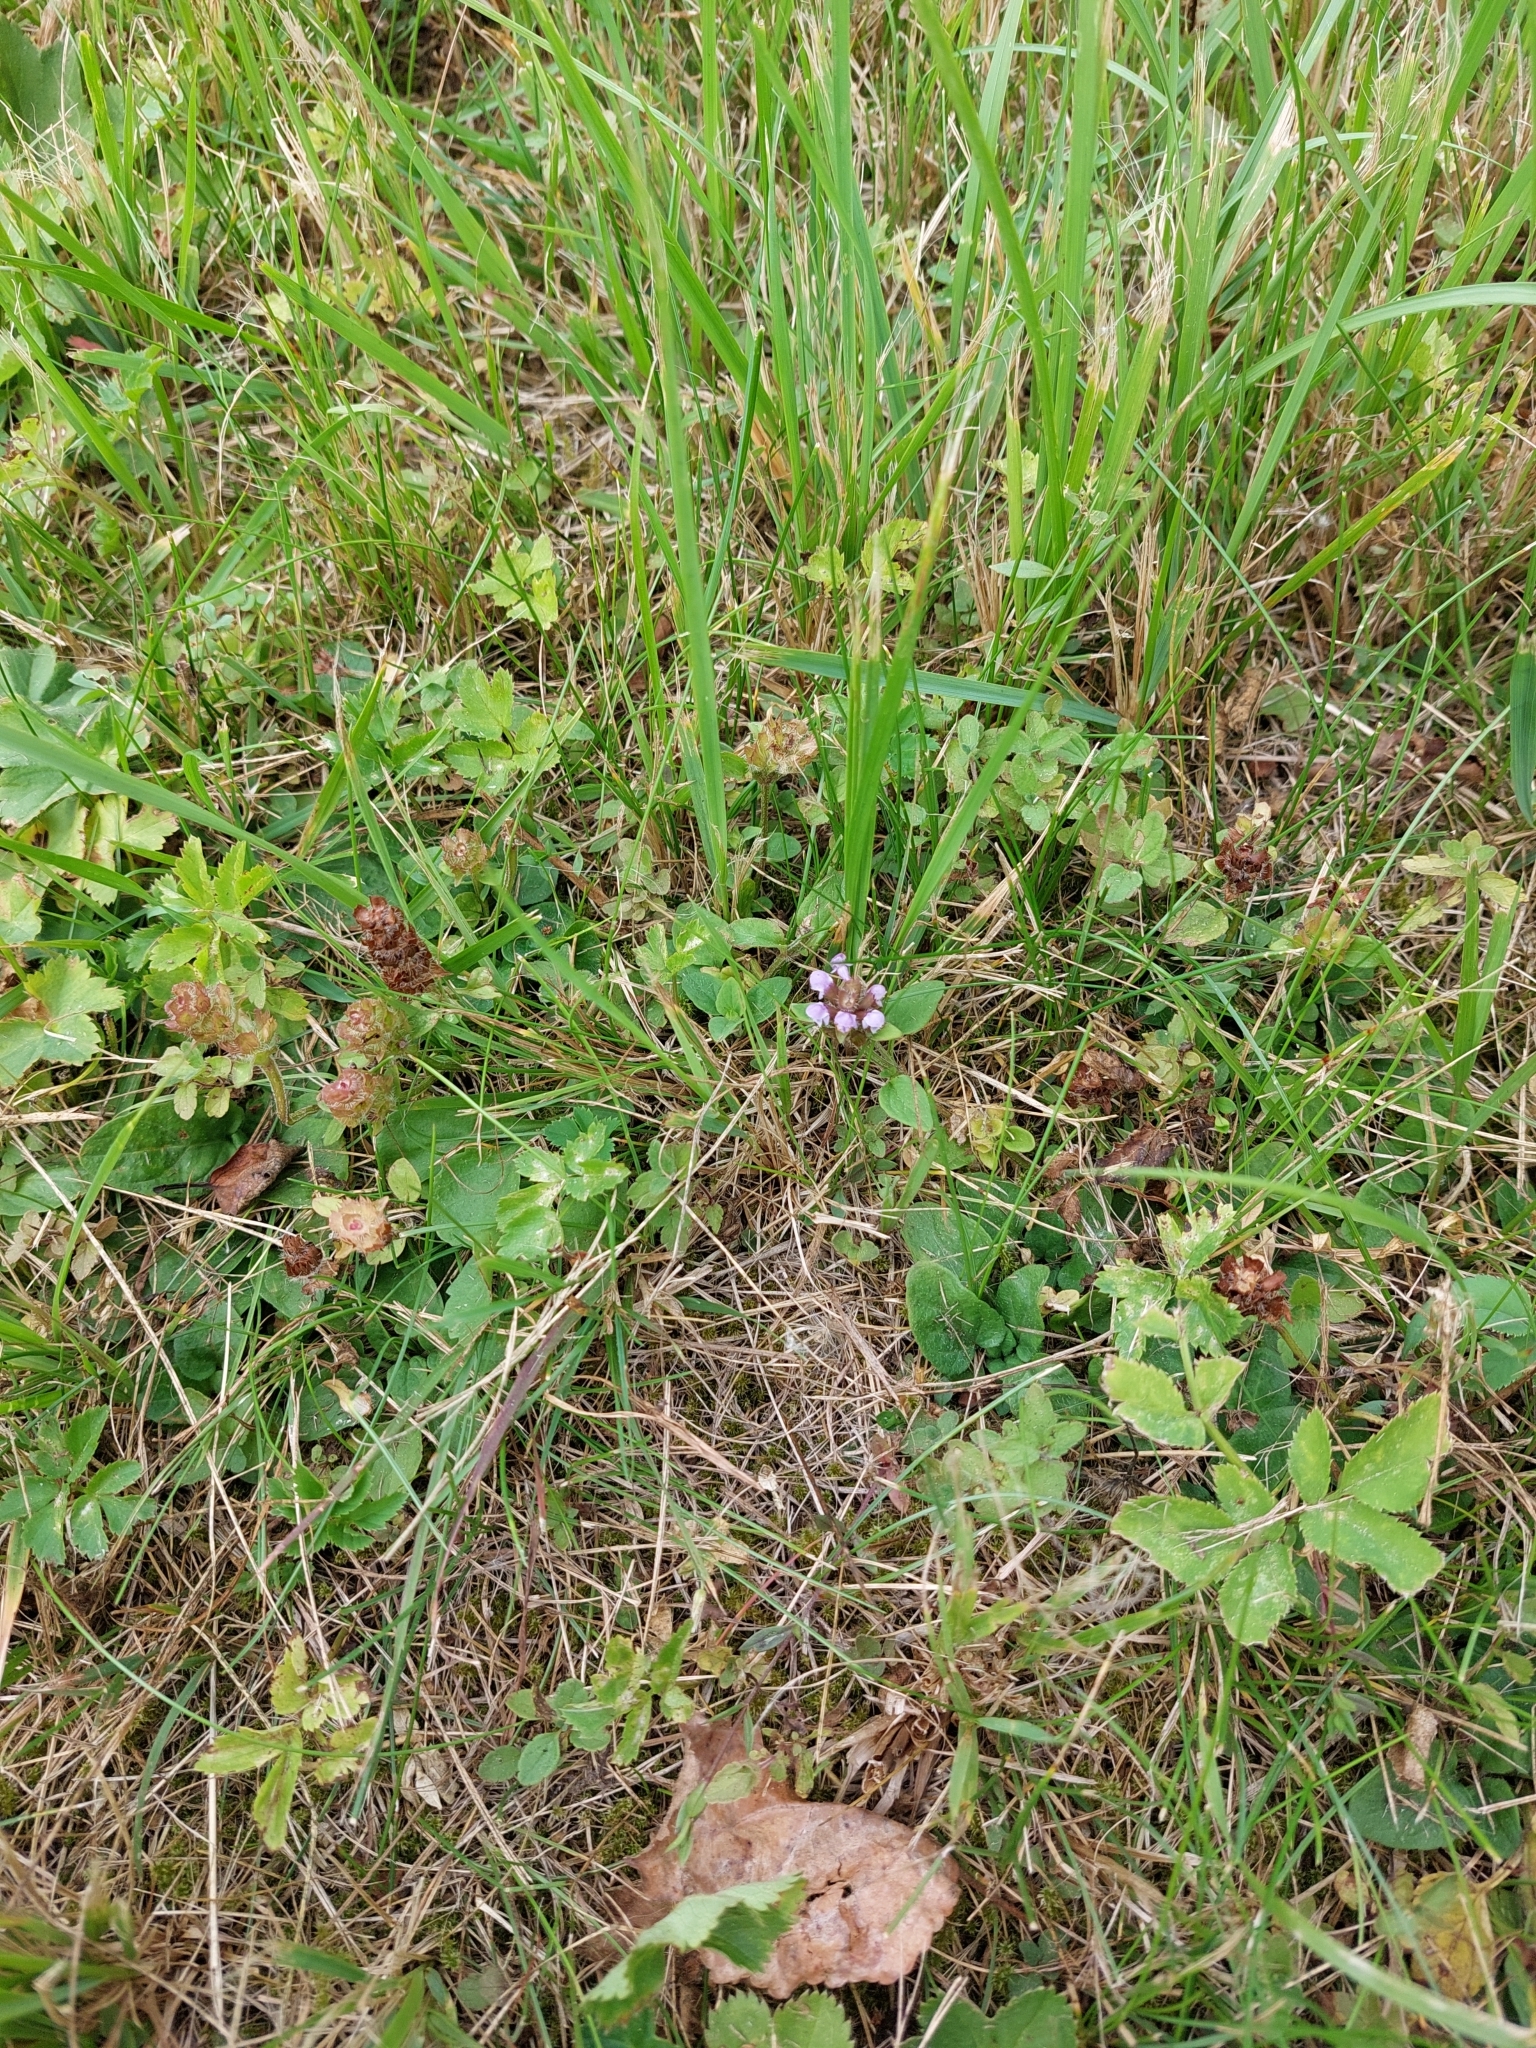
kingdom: Plantae
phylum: Tracheophyta
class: Magnoliopsida
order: Lamiales
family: Lamiaceae
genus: Prunella
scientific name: Prunella vulgaris
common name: Heal-all
